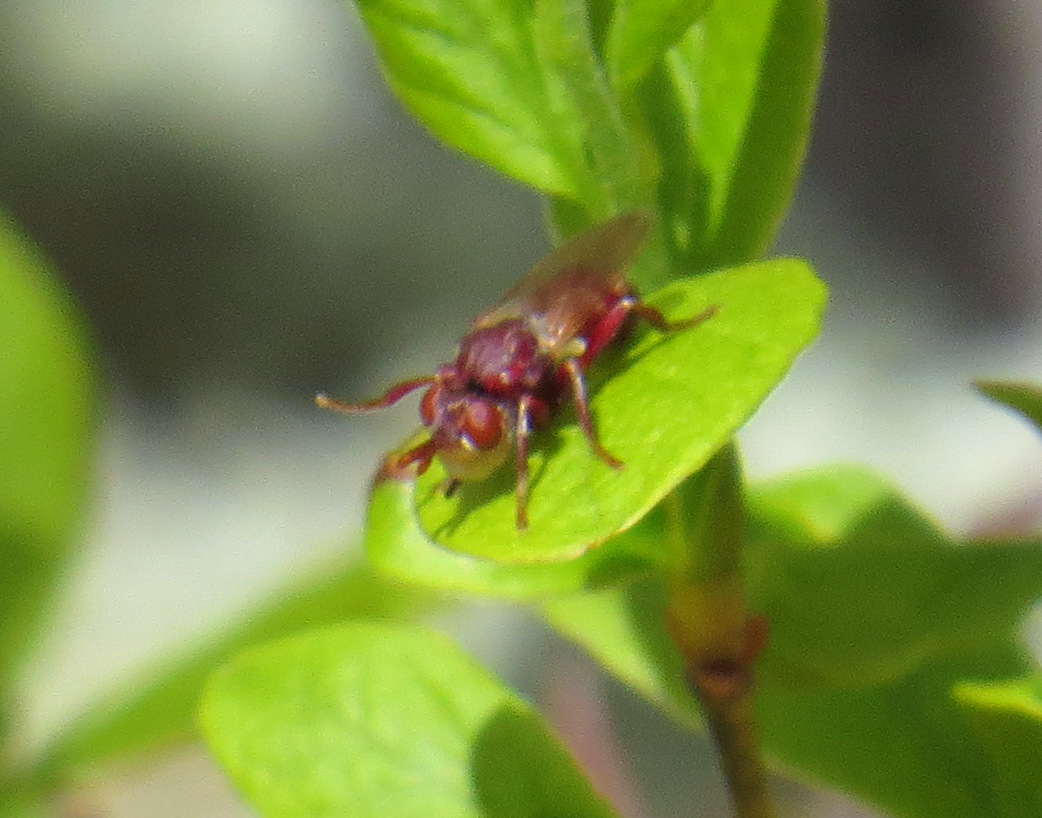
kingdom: Animalia
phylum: Arthropoda
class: Insecta
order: Diptera
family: Conopidae
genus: Myopa
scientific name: Myopa clausa
